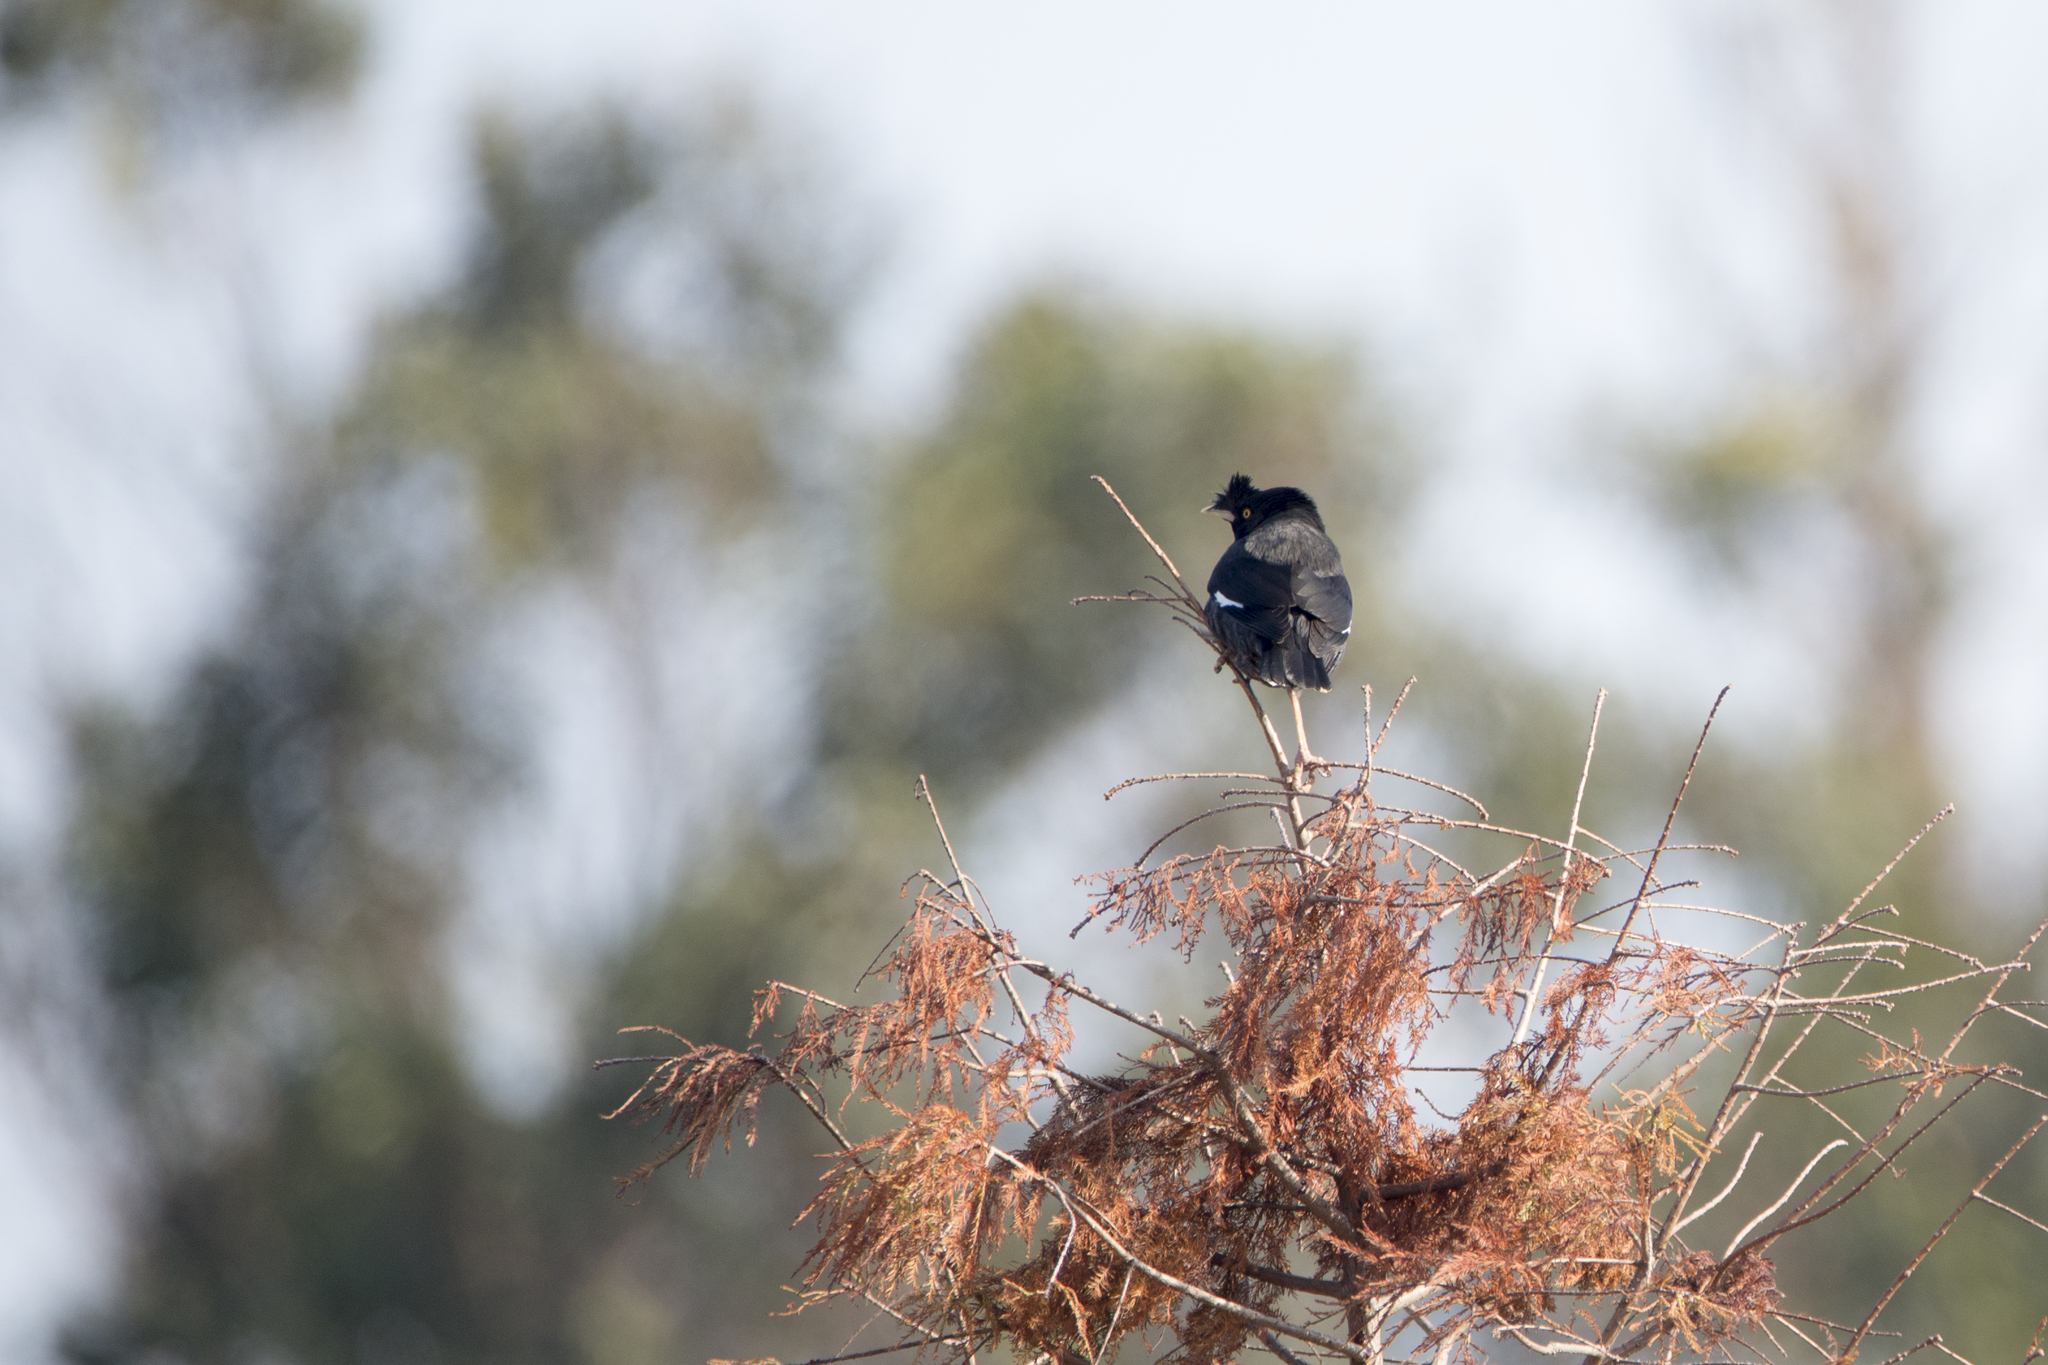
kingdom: Animalia
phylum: Chordata
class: Aves
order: Passeriformes
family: Sturnidae
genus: Acridotheres
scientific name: Acridotheres cristatellus
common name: Crested myna
